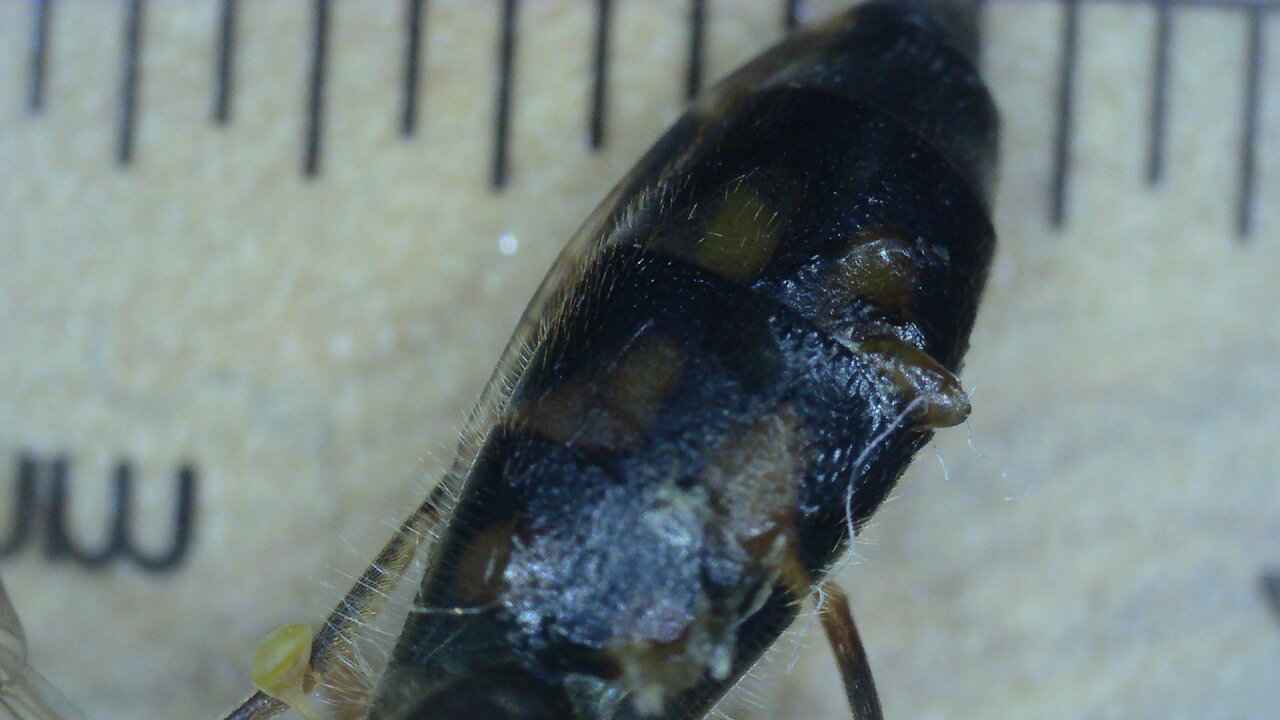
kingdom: Animalia
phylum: Arthropoda
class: Insecta
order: Diptera
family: Syrphidae
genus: Melanostoma
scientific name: Melanostoma
